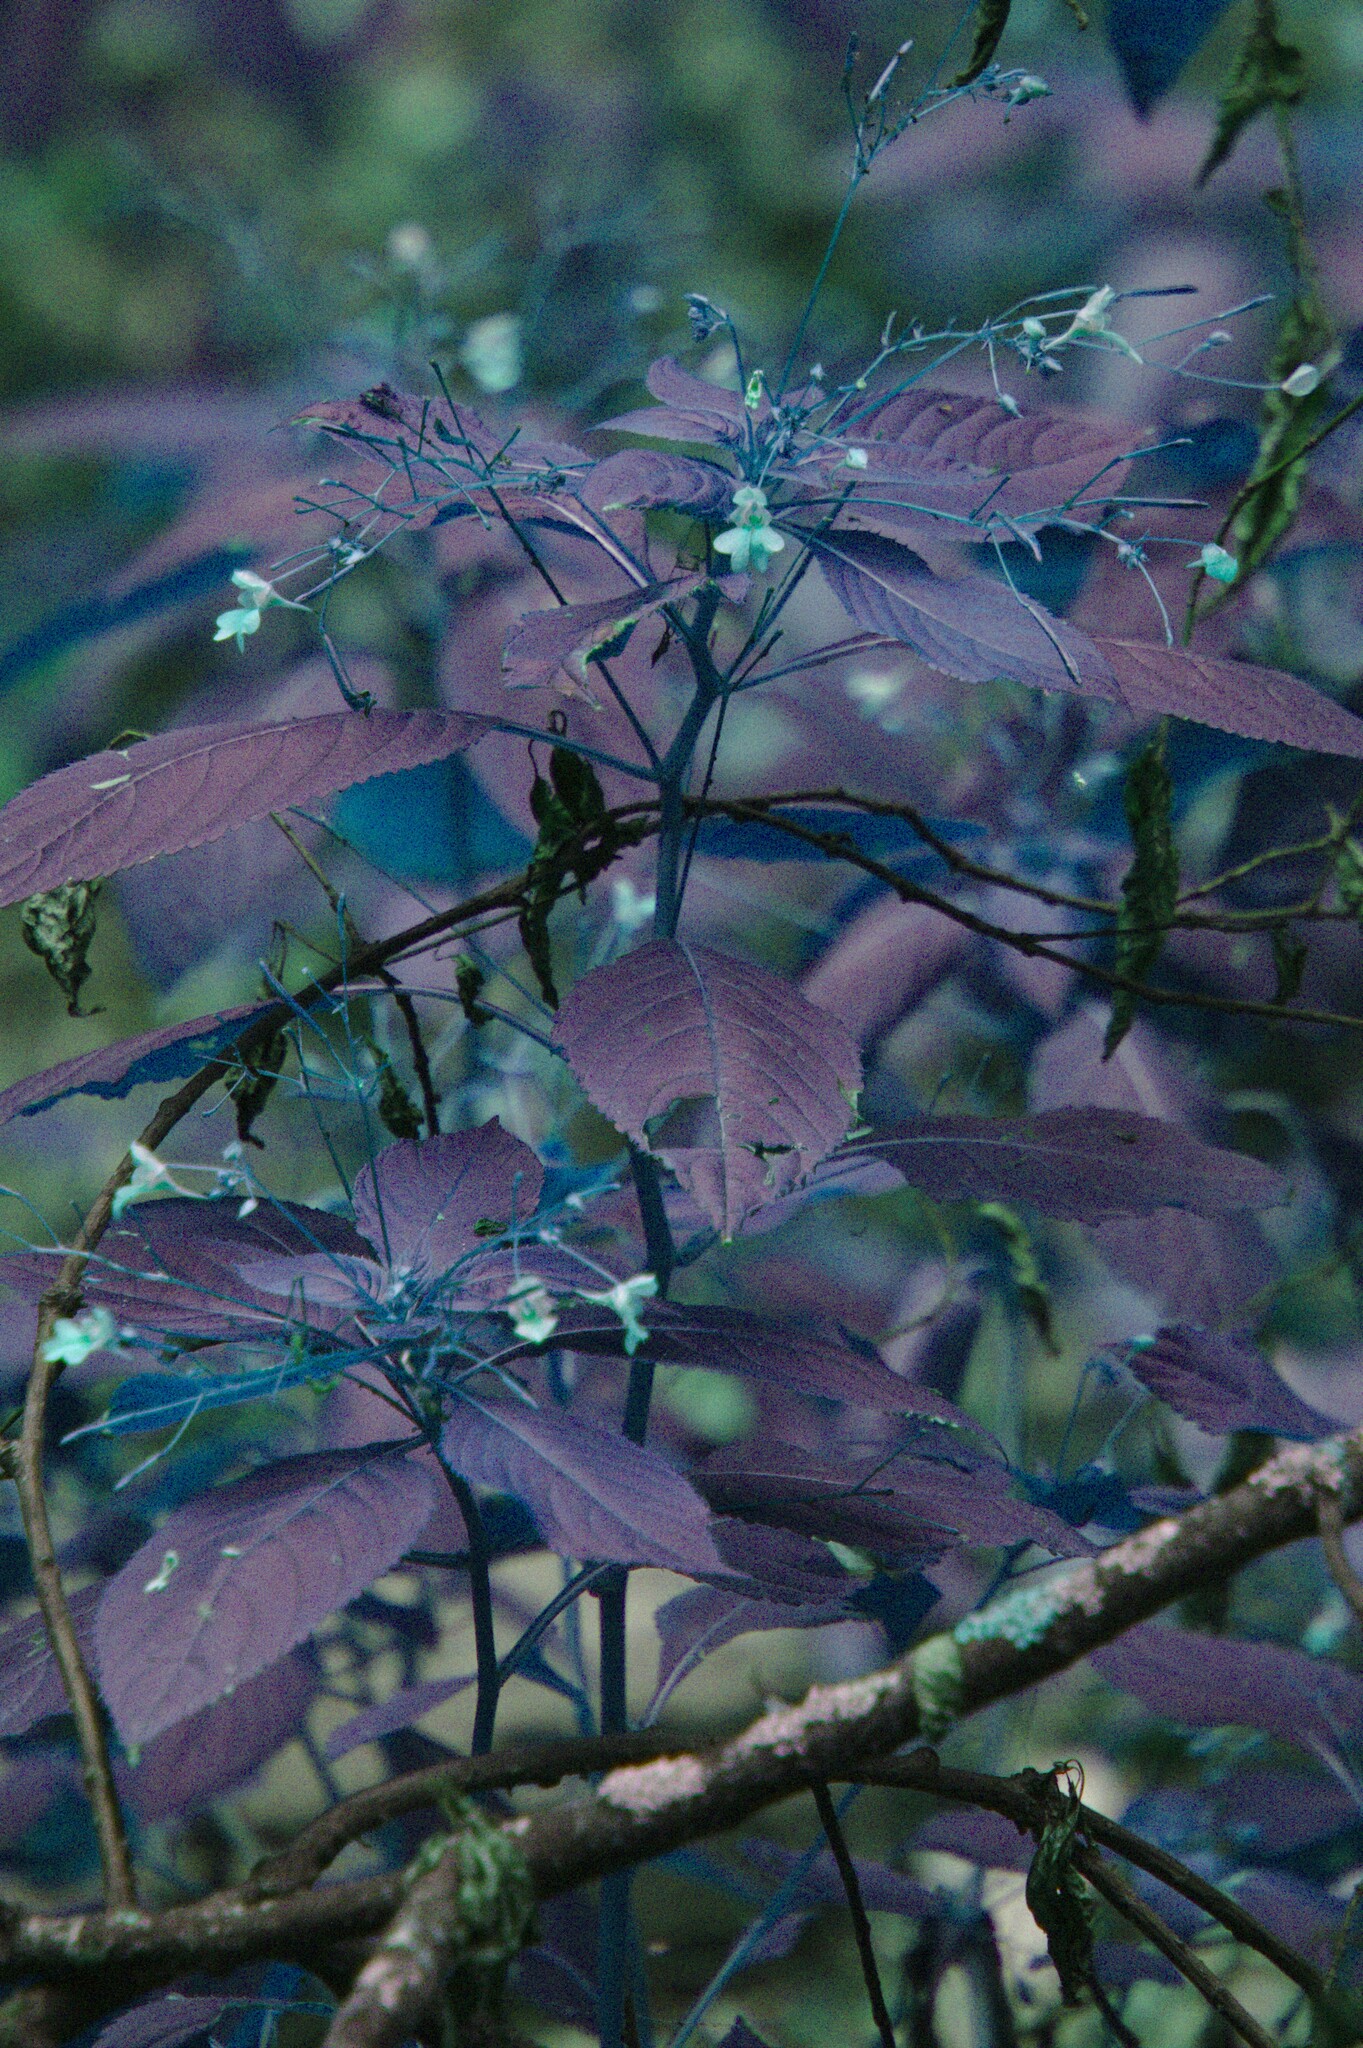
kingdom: Plantae
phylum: Tracheophyta
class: Magnoliopsida
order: Ericales
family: Balsaminaceae
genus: Impatiens
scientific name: Impatiens parviflora
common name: Small balsam
